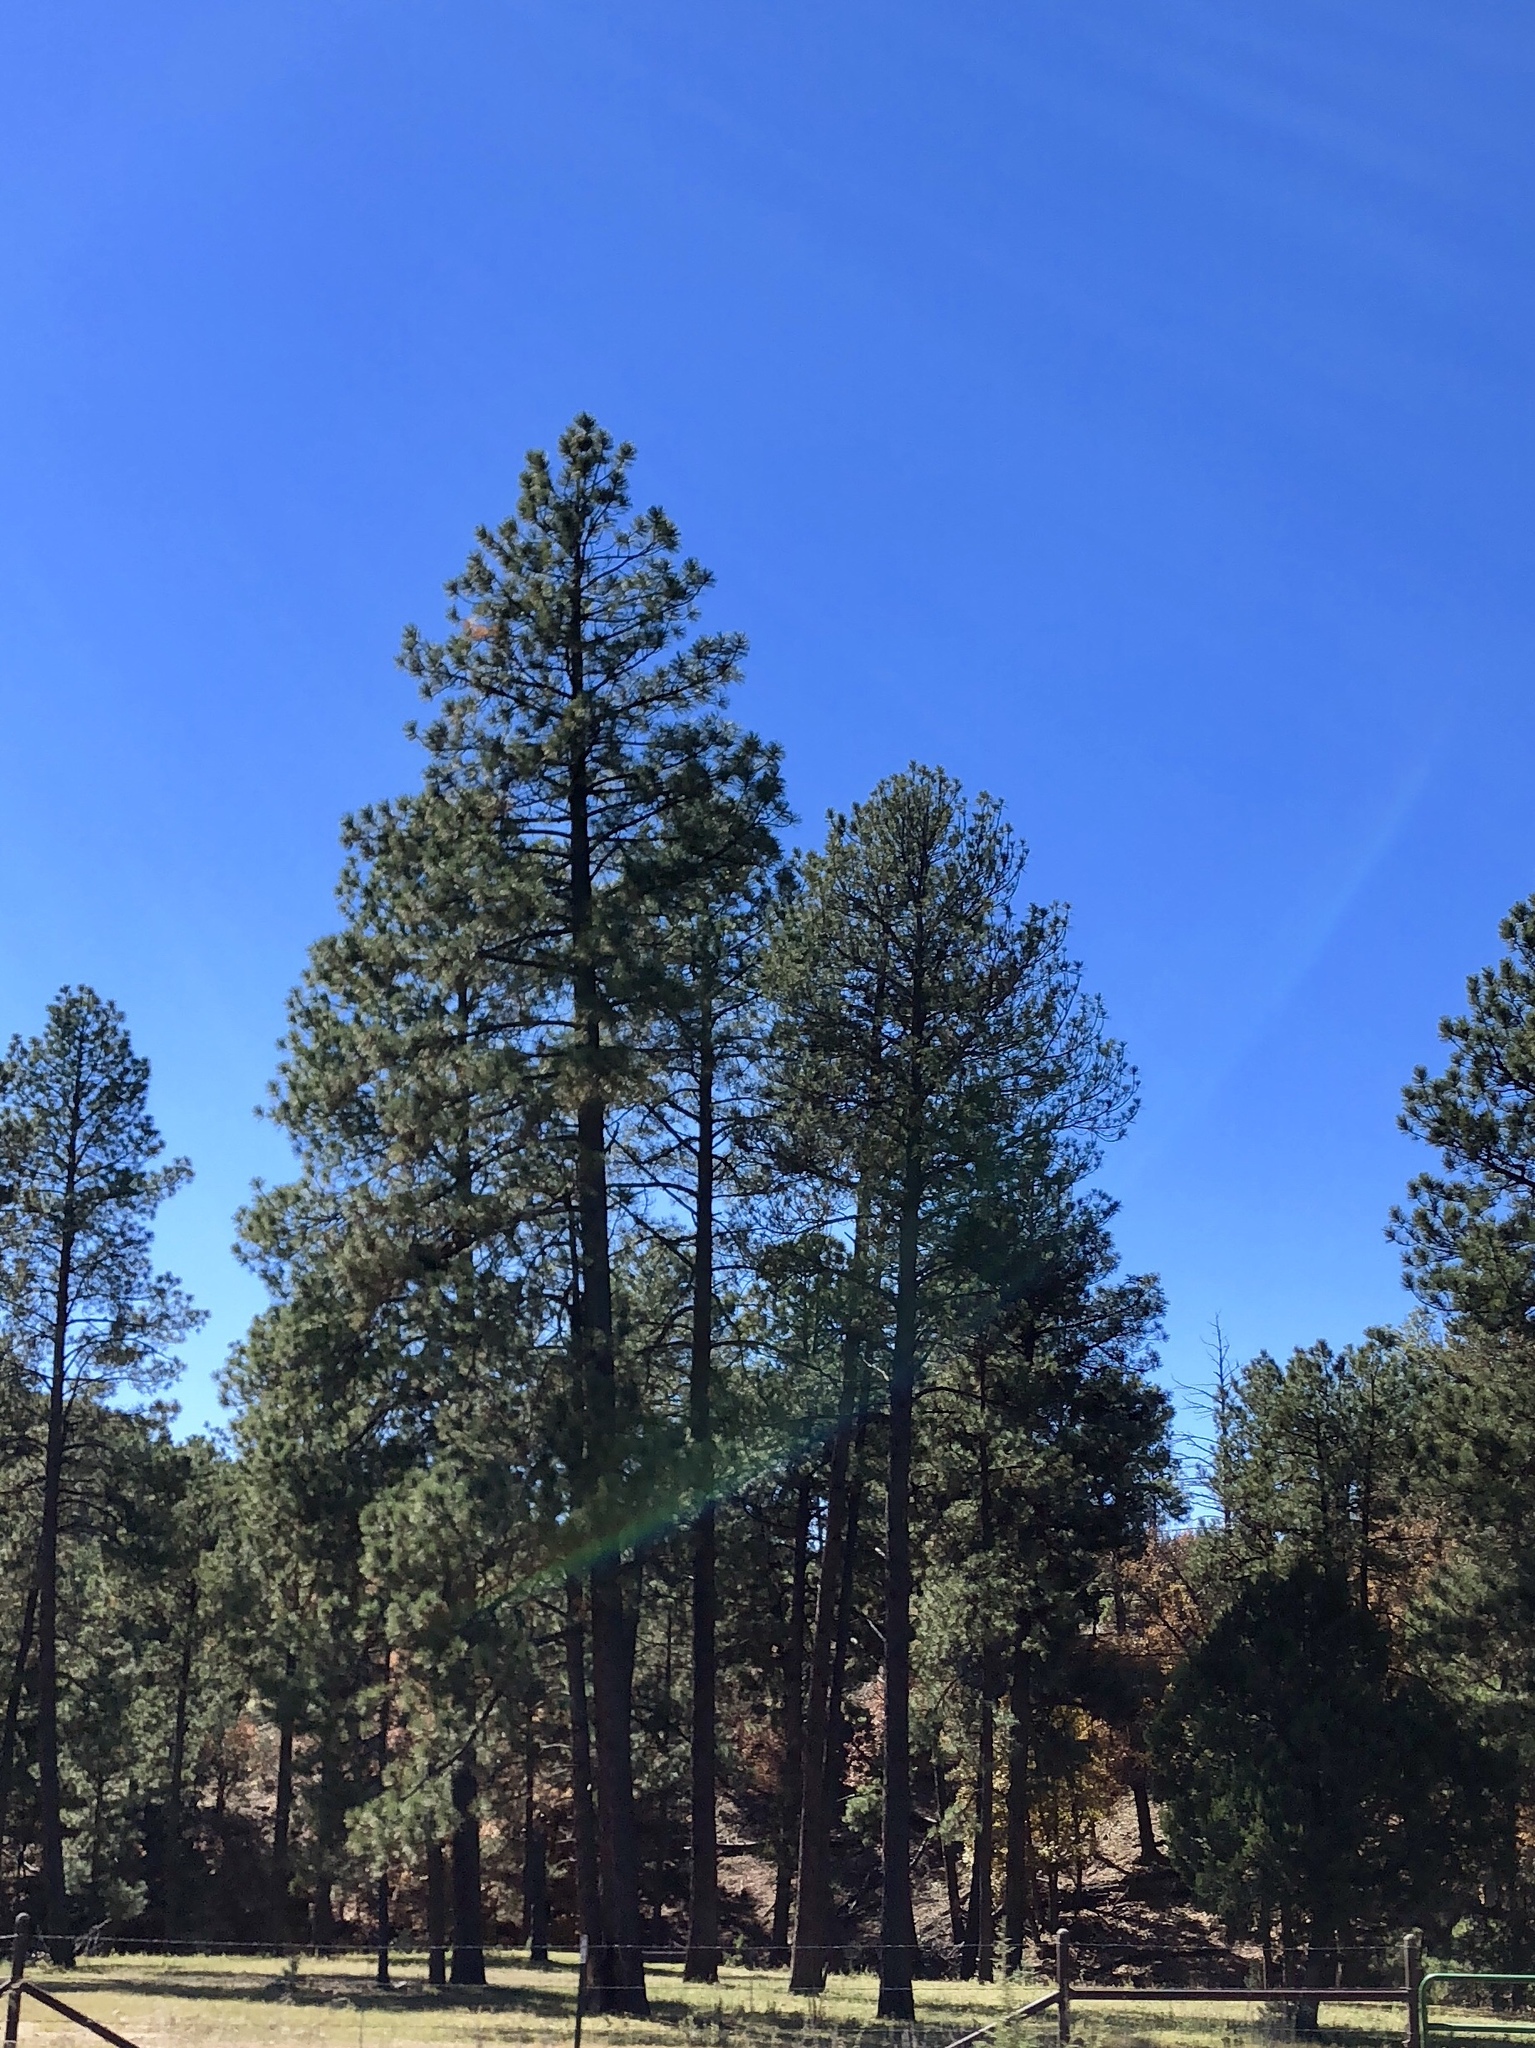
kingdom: Plantae
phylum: Tracheophyta
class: Pinopsida
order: Pinales
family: Pinaceae
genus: Pinus
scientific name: Pinus ponderosa
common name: Western yellow-pine
